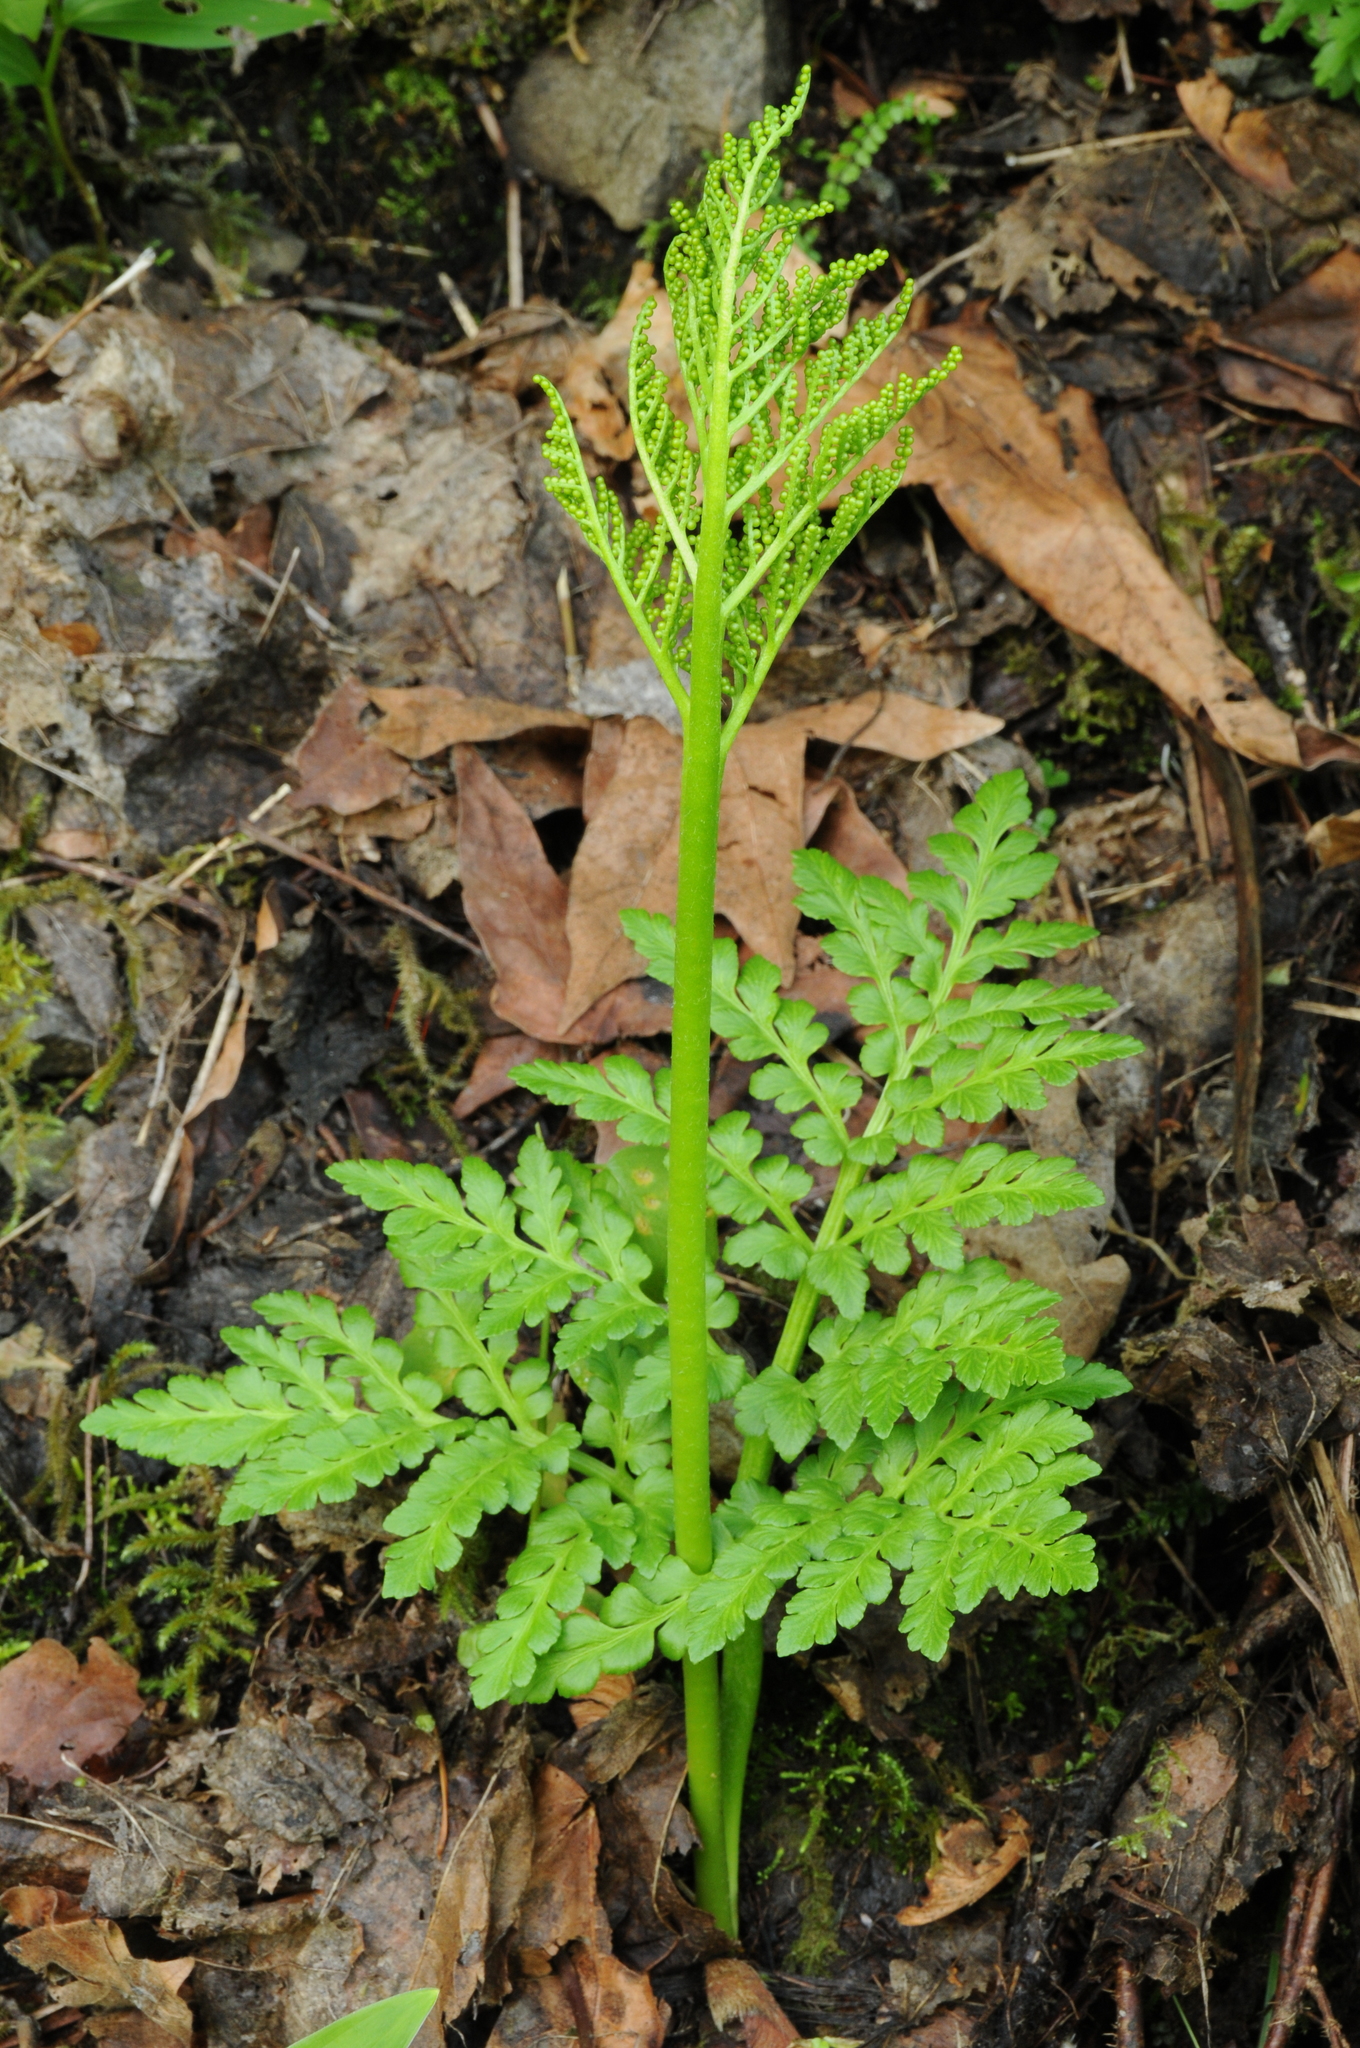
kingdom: Plantae
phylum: Tracheophyta
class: Polypodiopsida
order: Ophioglossales
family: Ophioglossaceae
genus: Sceptridium
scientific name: Sceptridium multifidum
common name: Leathery grape fern
